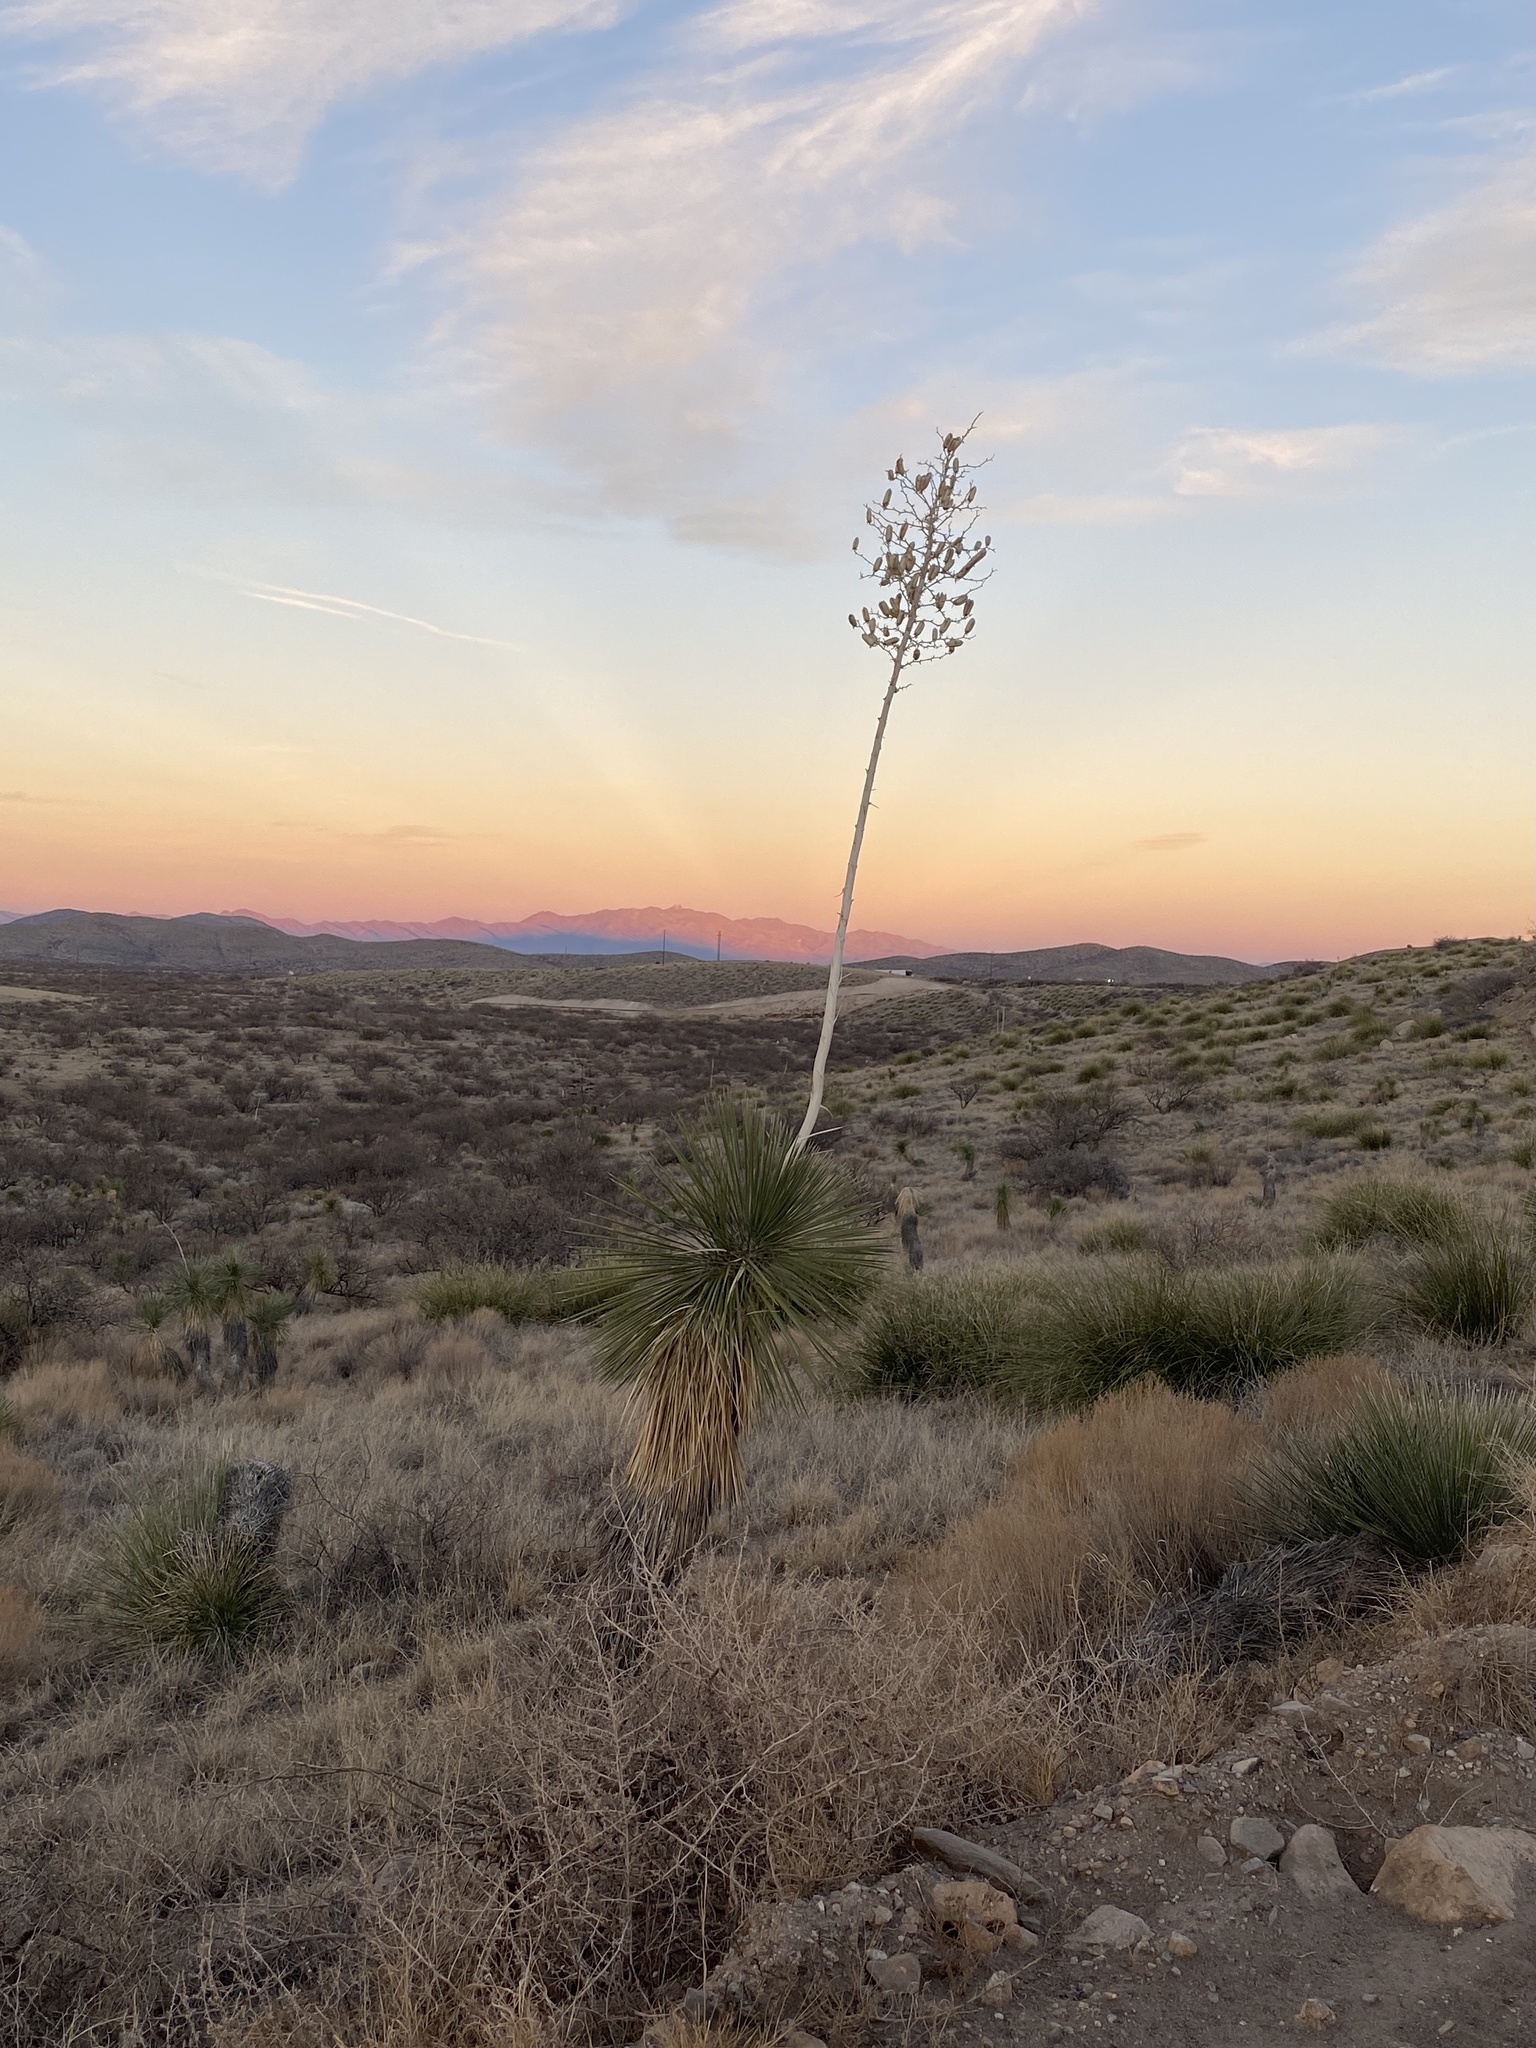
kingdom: Plantae
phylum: Tracheophyta
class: Liliopsida
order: Asparagales
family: Asparagaceae
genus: Yucca
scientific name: Yucca elata
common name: Palmella
